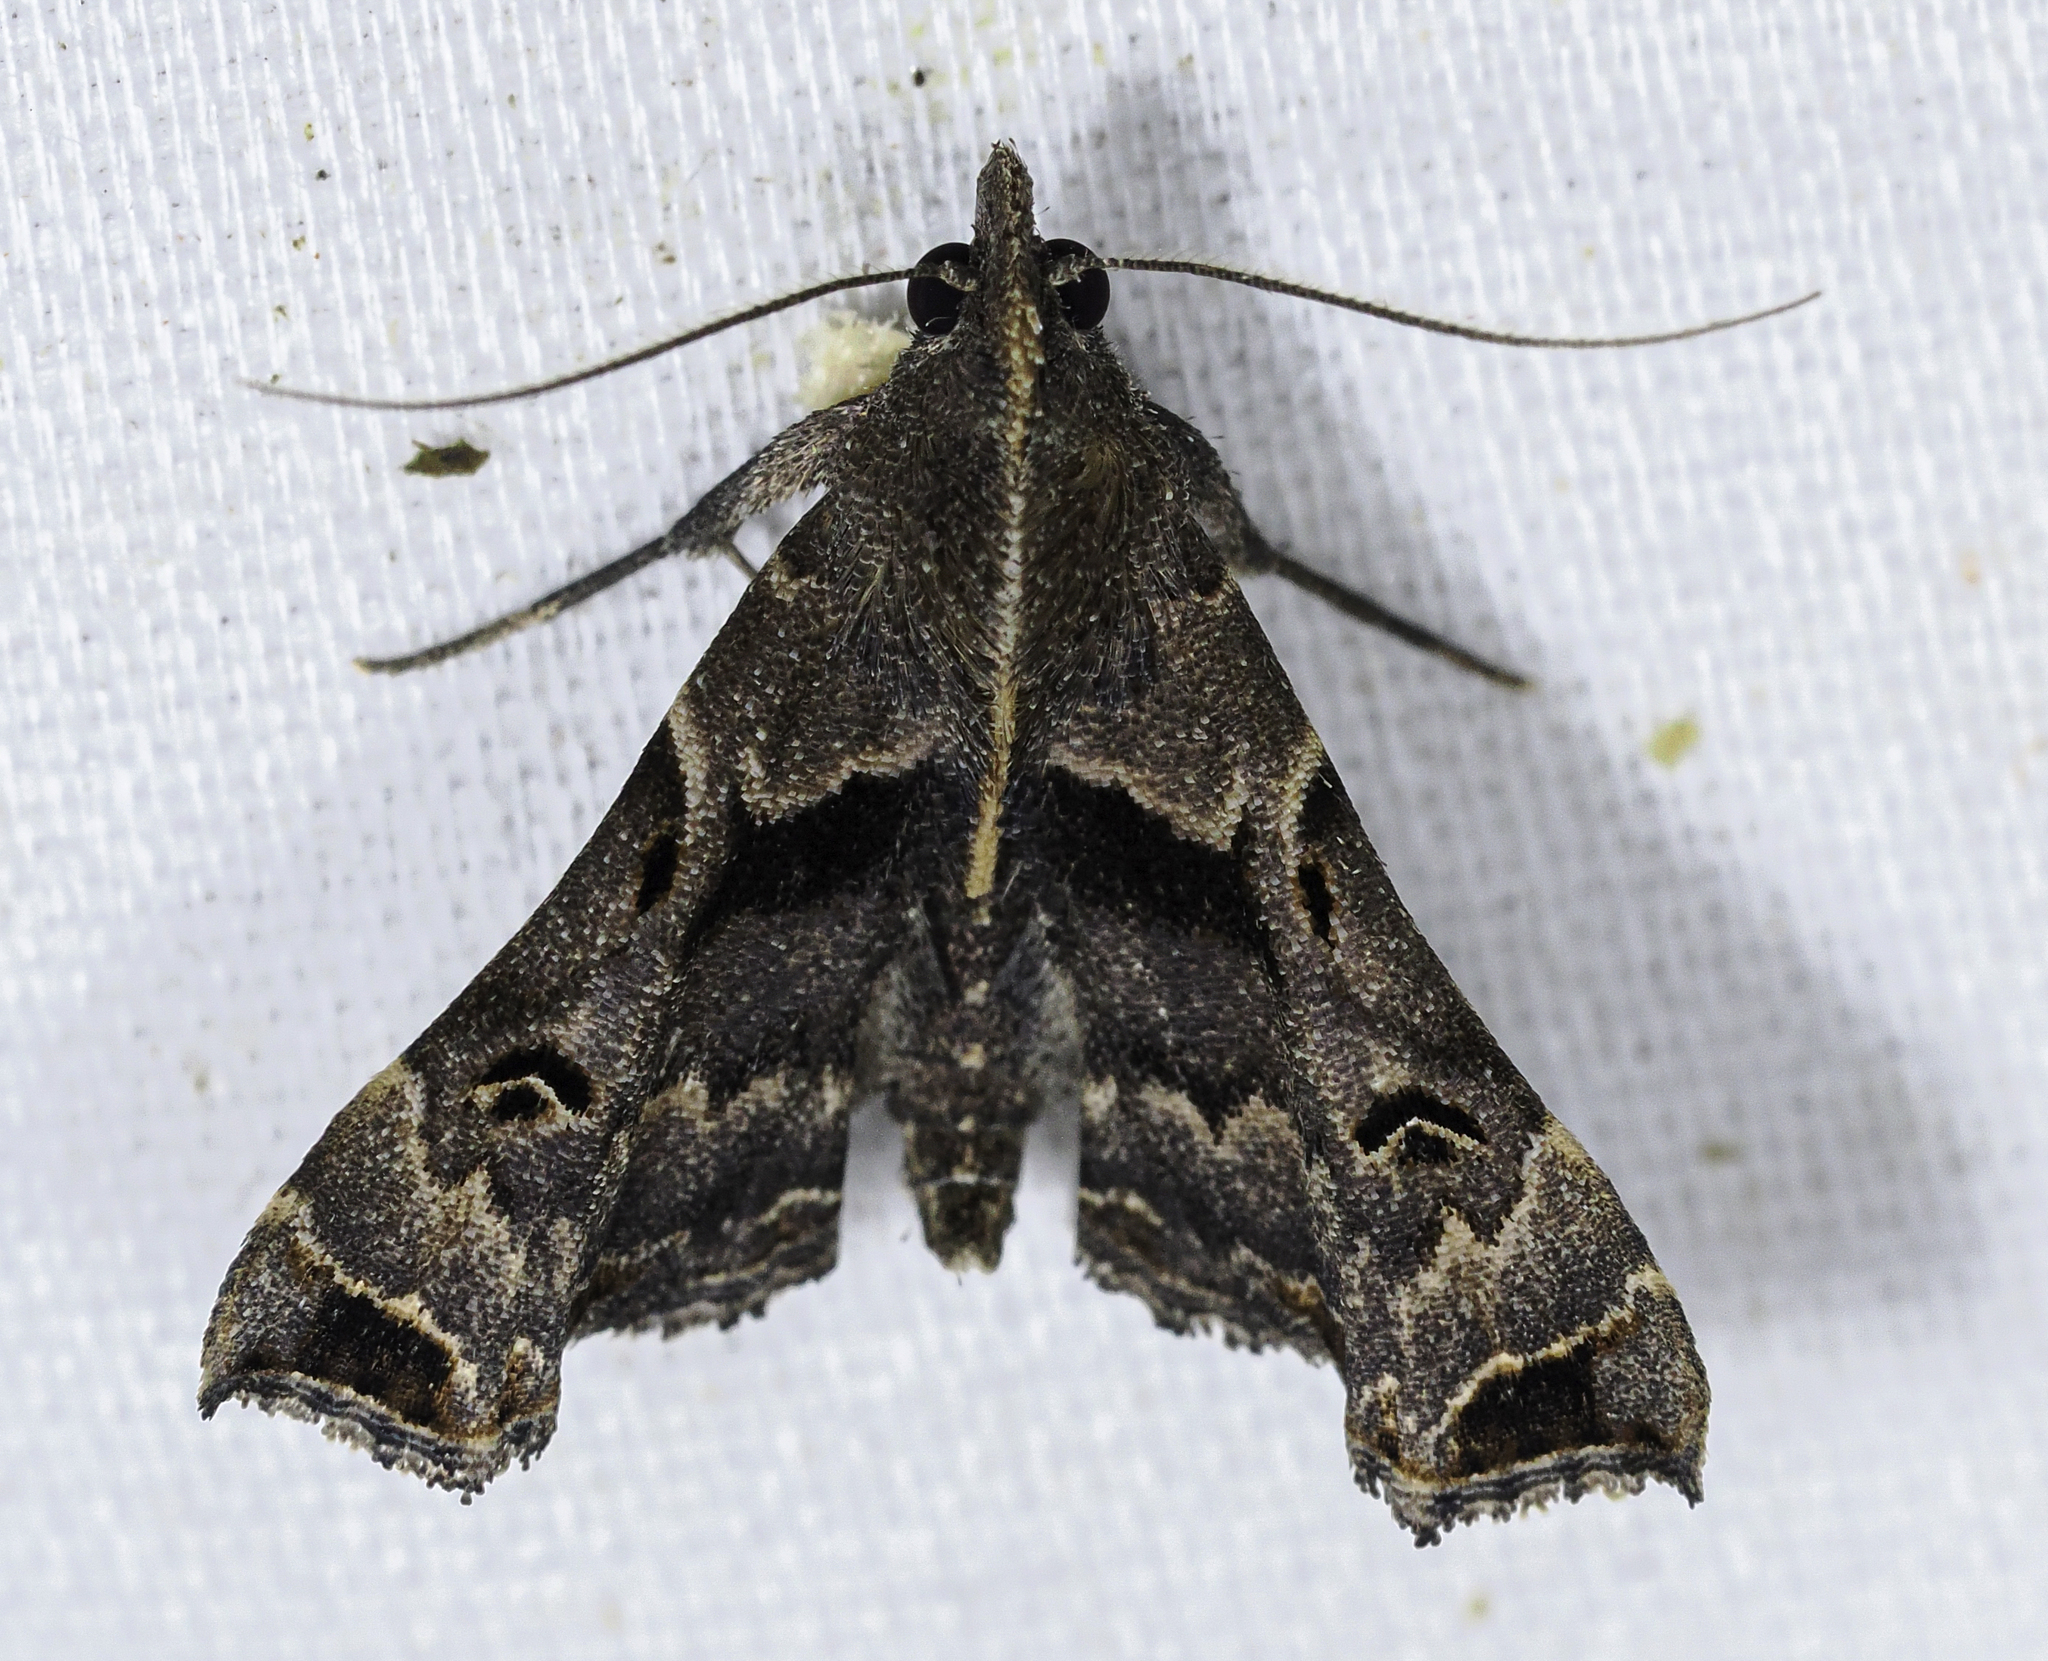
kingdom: Animalia
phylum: Arthropoda
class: Insecta
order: Lepidoptera
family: Erebidae
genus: Palthis
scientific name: Palthis asopialis
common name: Faint-spotted palthis moth
